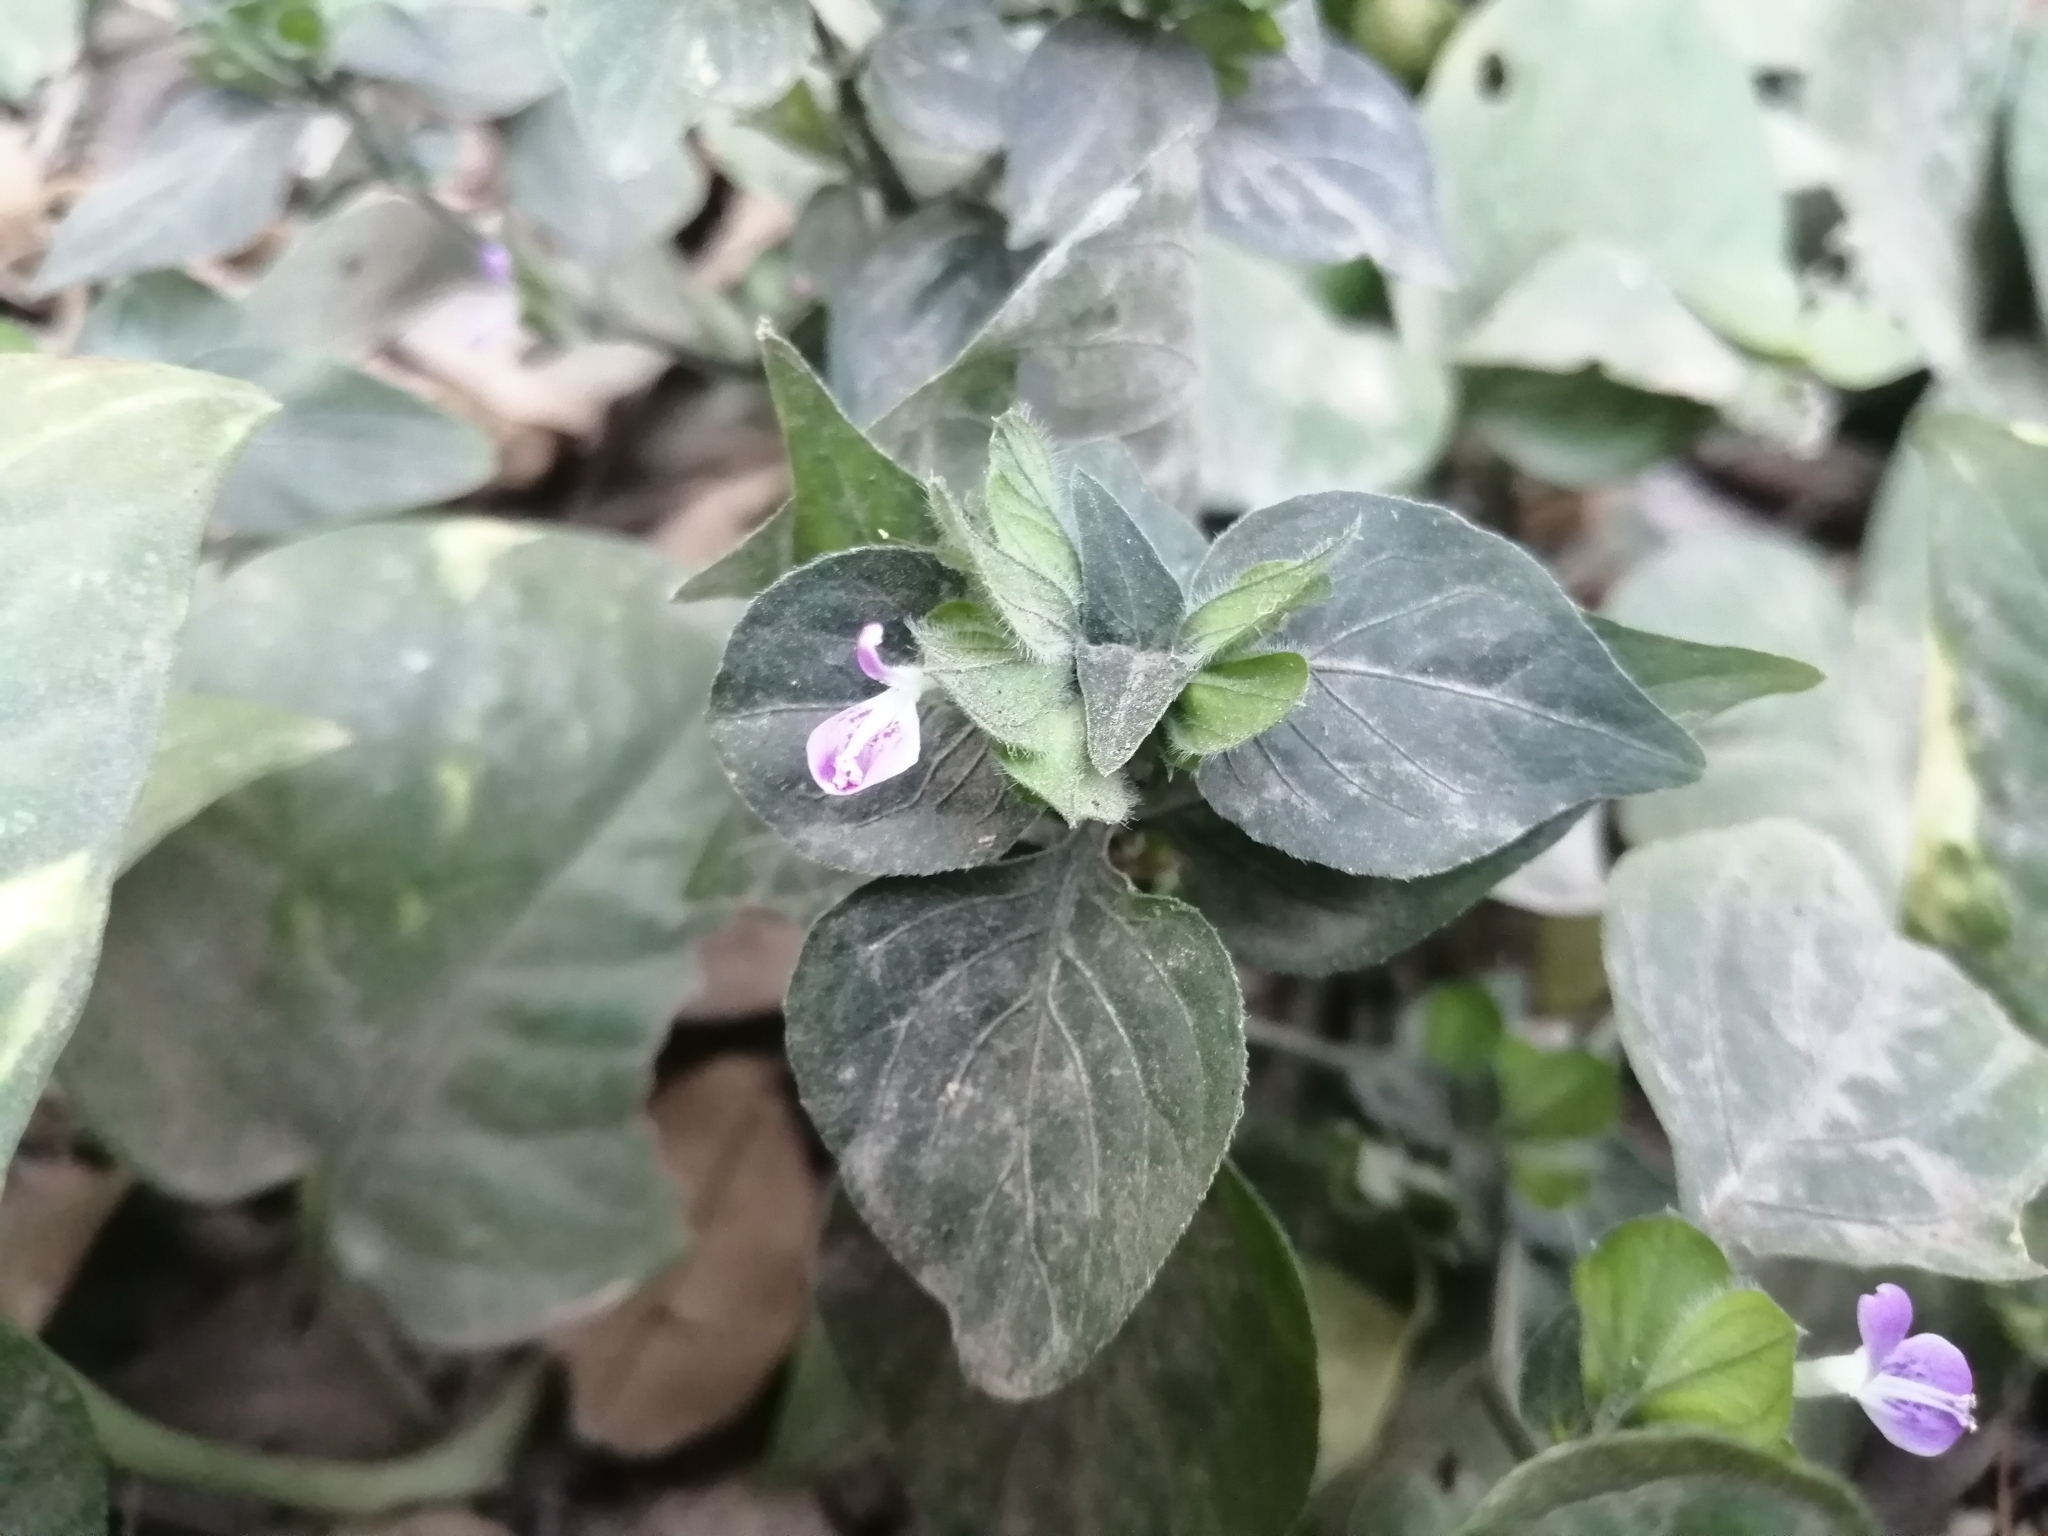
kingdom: Plantae
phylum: Tracheophyta
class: Magnoliopsida
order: Lamiales
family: Acanthaceae
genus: Dicliptera
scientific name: Dicliptera chinensis
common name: Chinese foldwing
